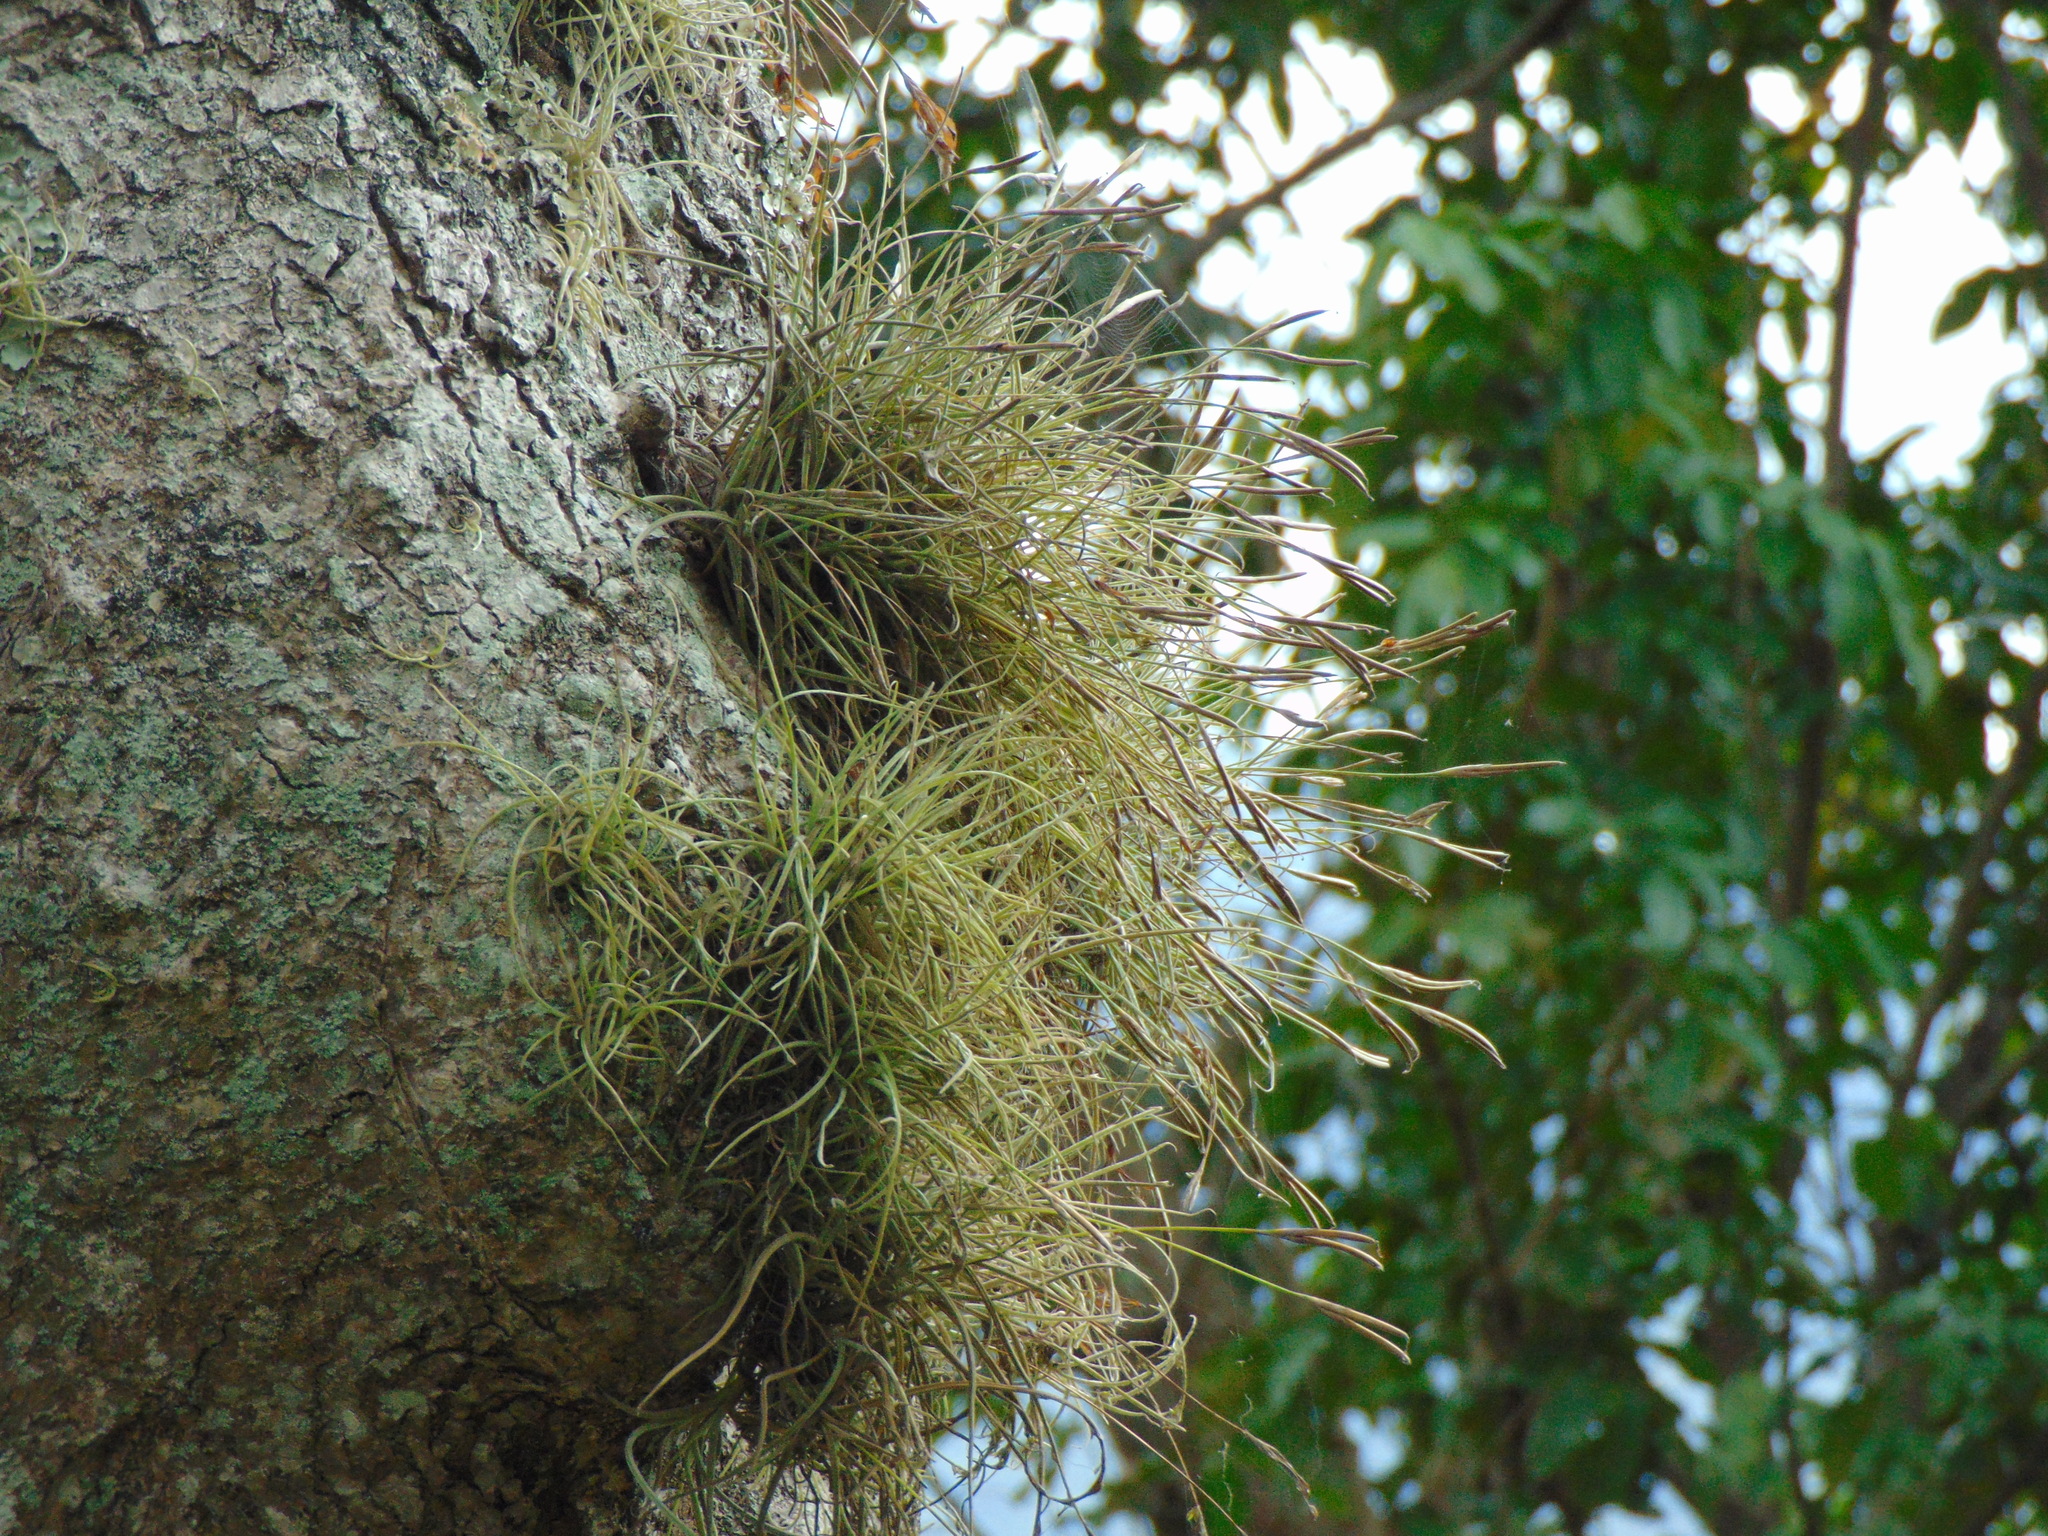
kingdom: Plantae
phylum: Tracheophyta
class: Liliopsida
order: Poales
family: Bromeliaceae
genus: Tillandsia
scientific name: Tillandsia recurvata
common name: Small ballmoss
